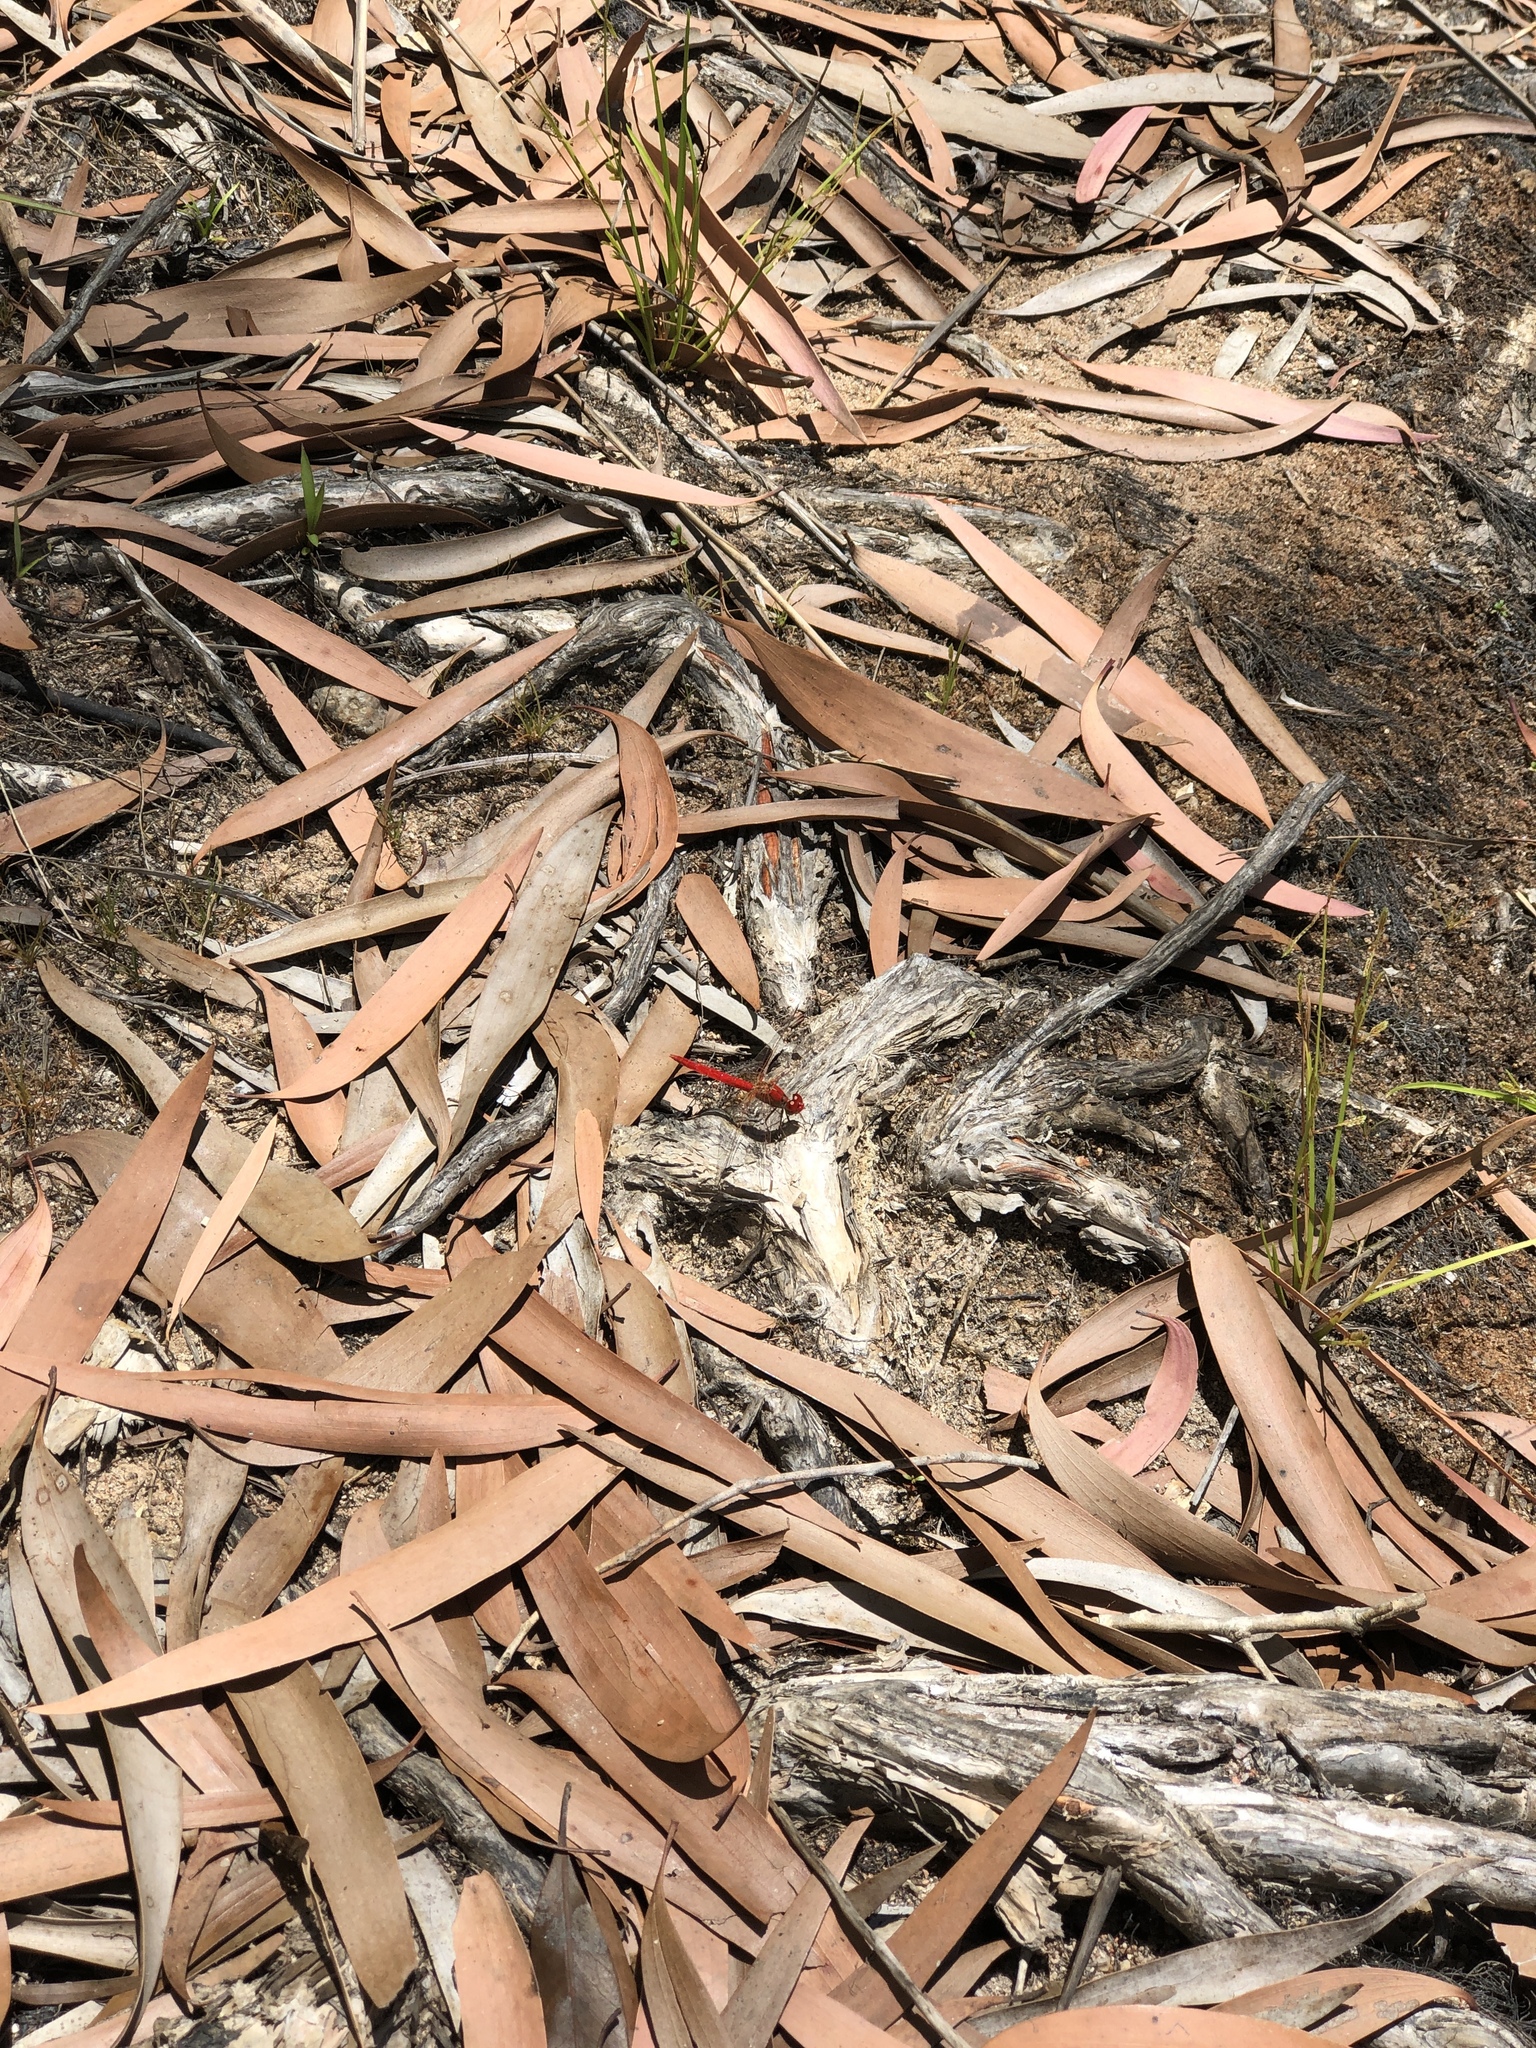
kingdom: Animalia
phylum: Arthropoda
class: Insecta
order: Odonata
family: Libellulidae
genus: Diplacodes
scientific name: Diplacodes haematodes
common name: Scarlet percher
